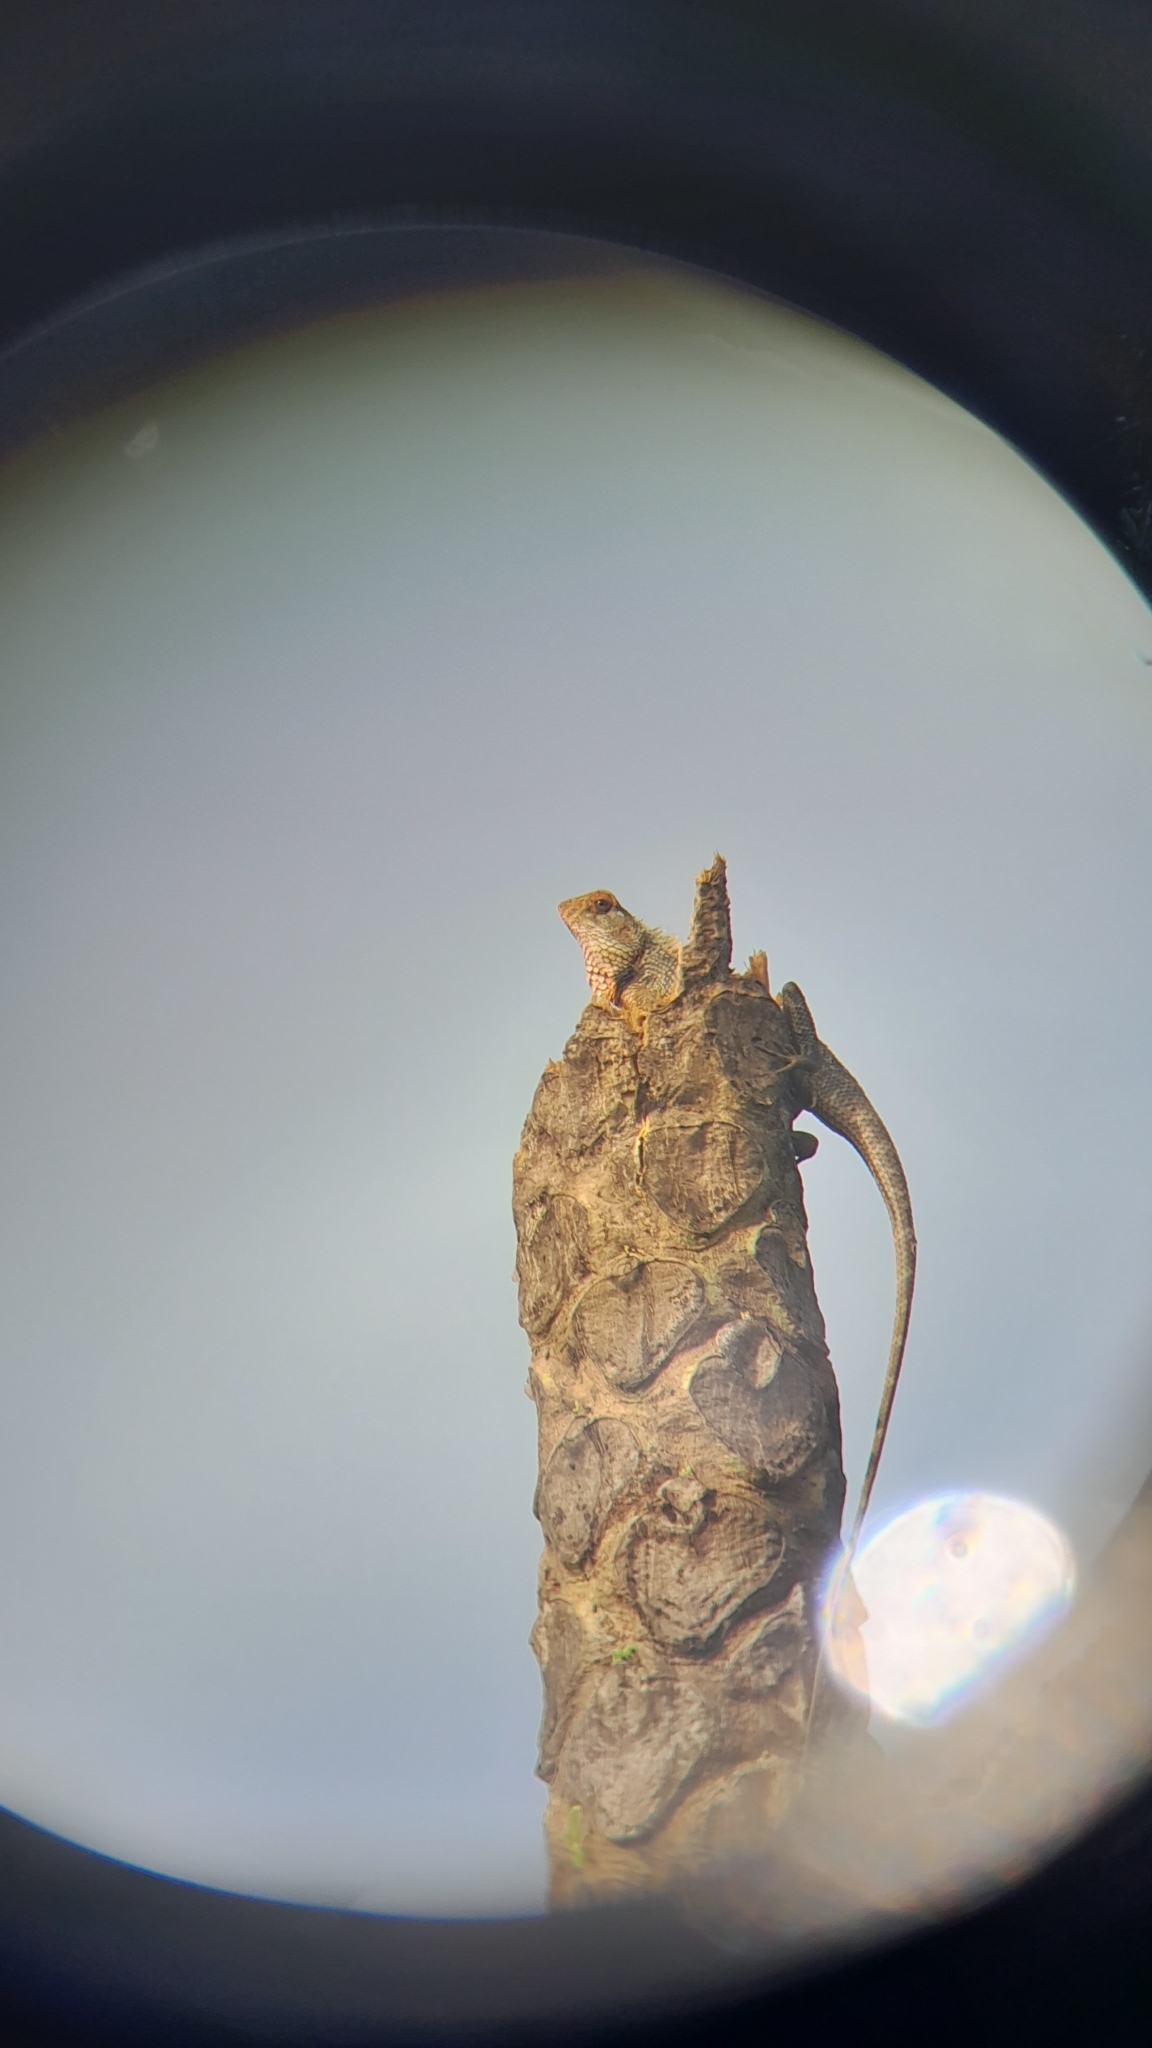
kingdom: Animalia
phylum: Chordata
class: Squamata
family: Agamidae
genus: Calotes
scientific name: Calotes versicolor
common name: Oriental garden lizard
